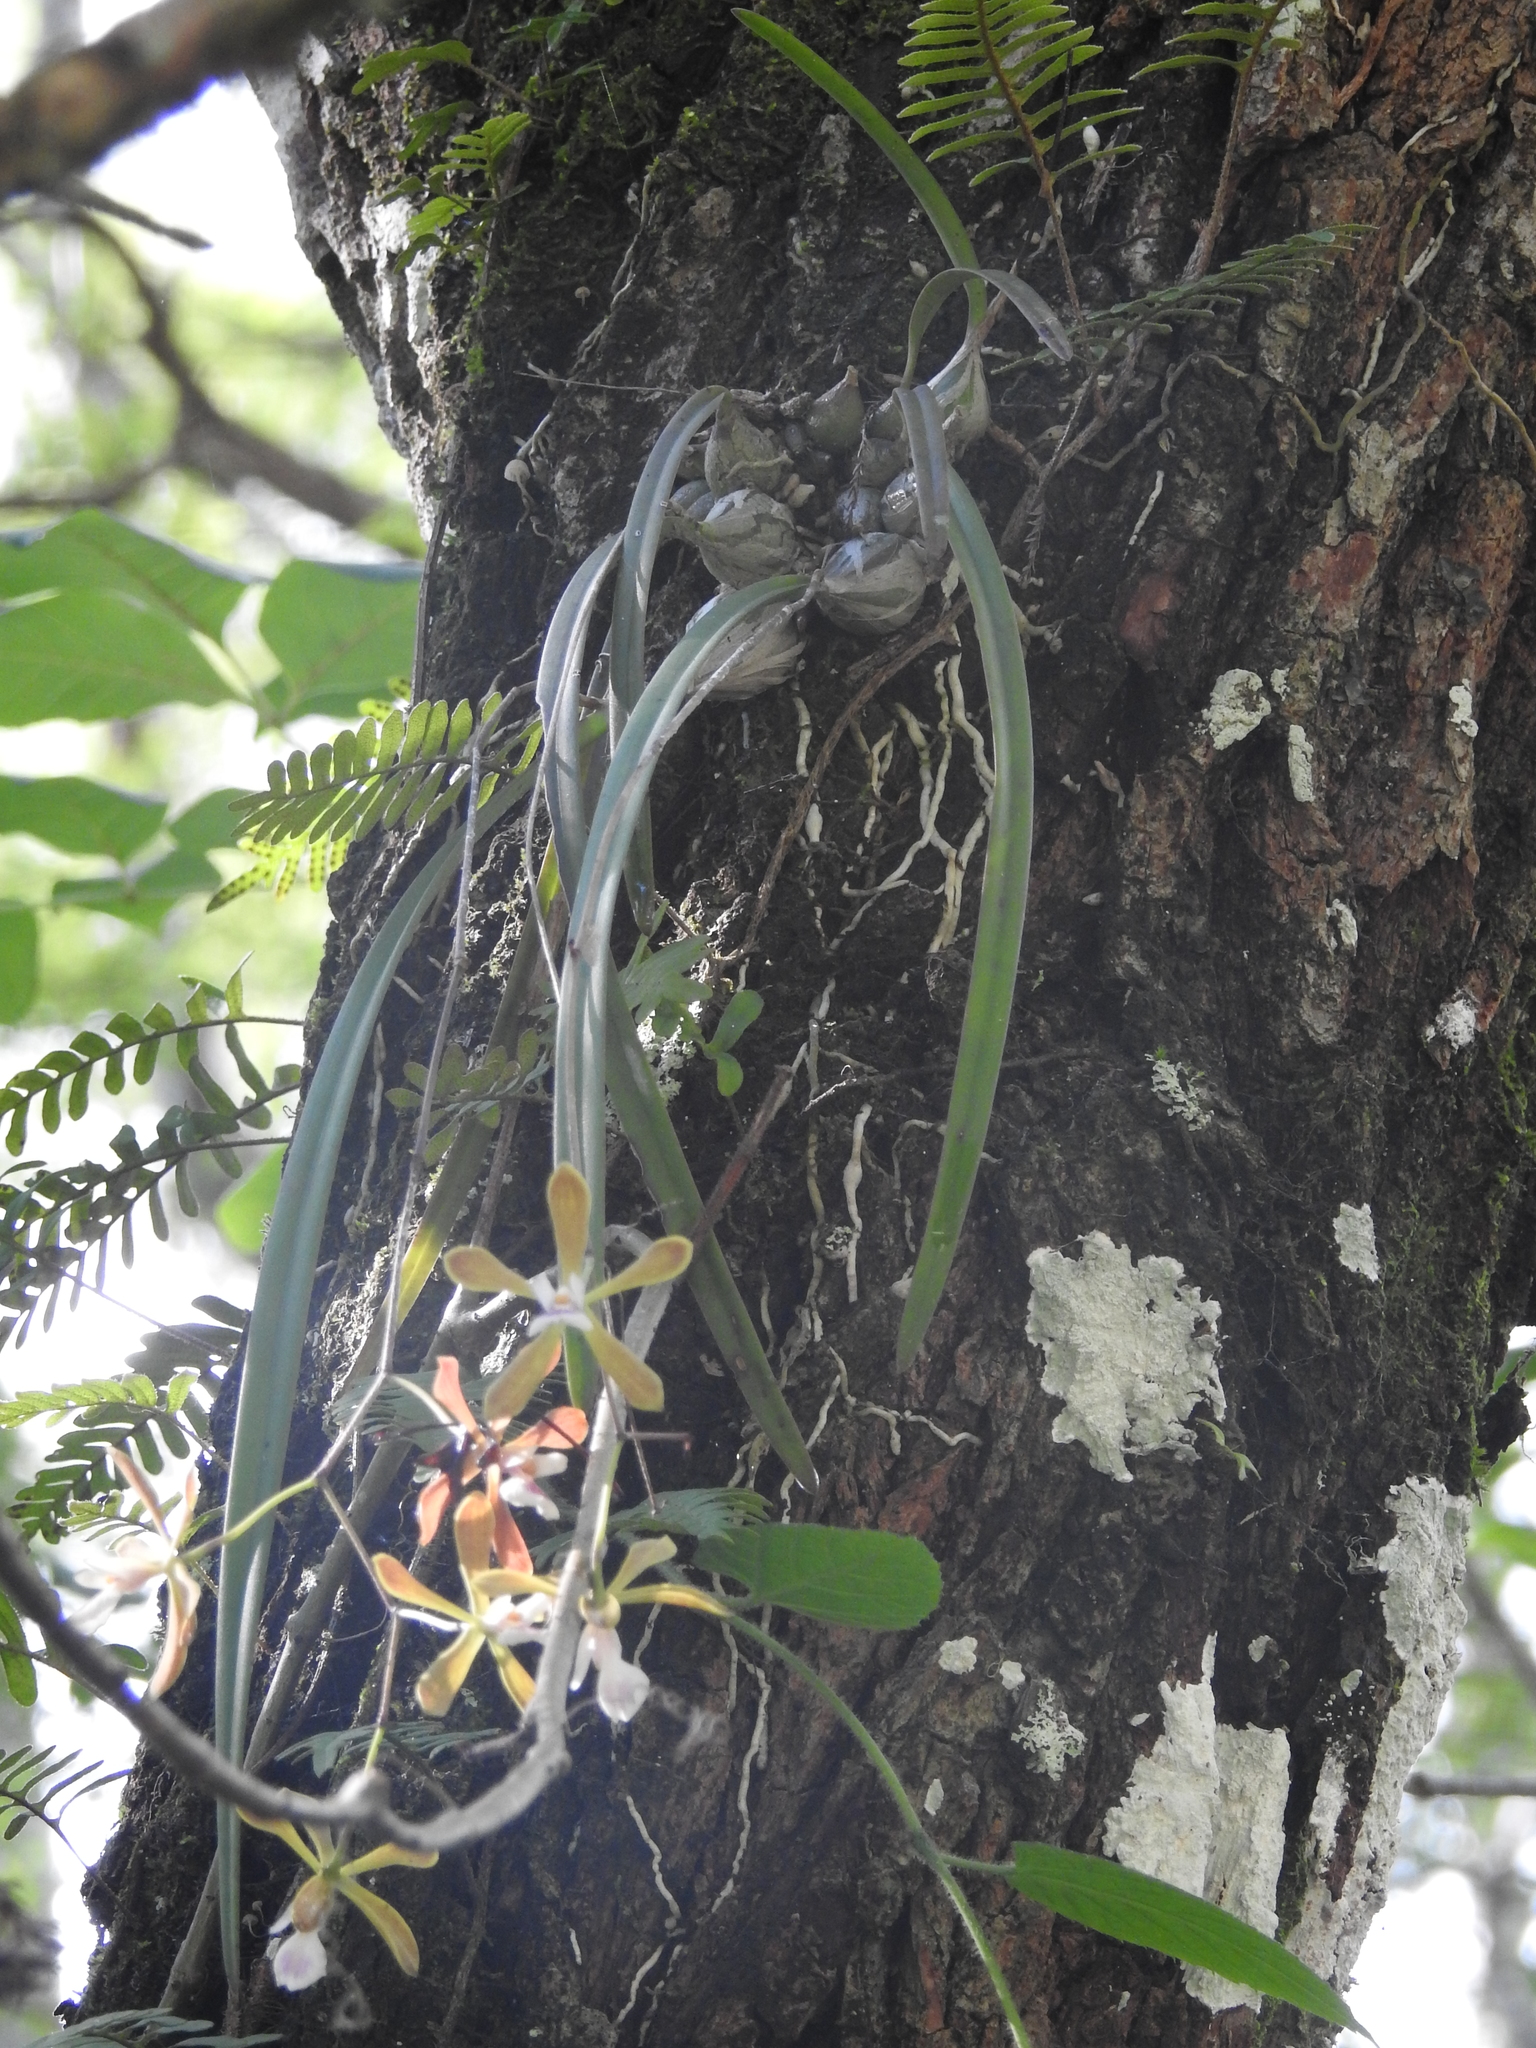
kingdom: Plantae
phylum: Tracheophyta
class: Liliopsida
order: Asparagales
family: Orchidaceae
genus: Encyclia
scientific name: Encyclia tampensis
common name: Florida butterfly orchid
